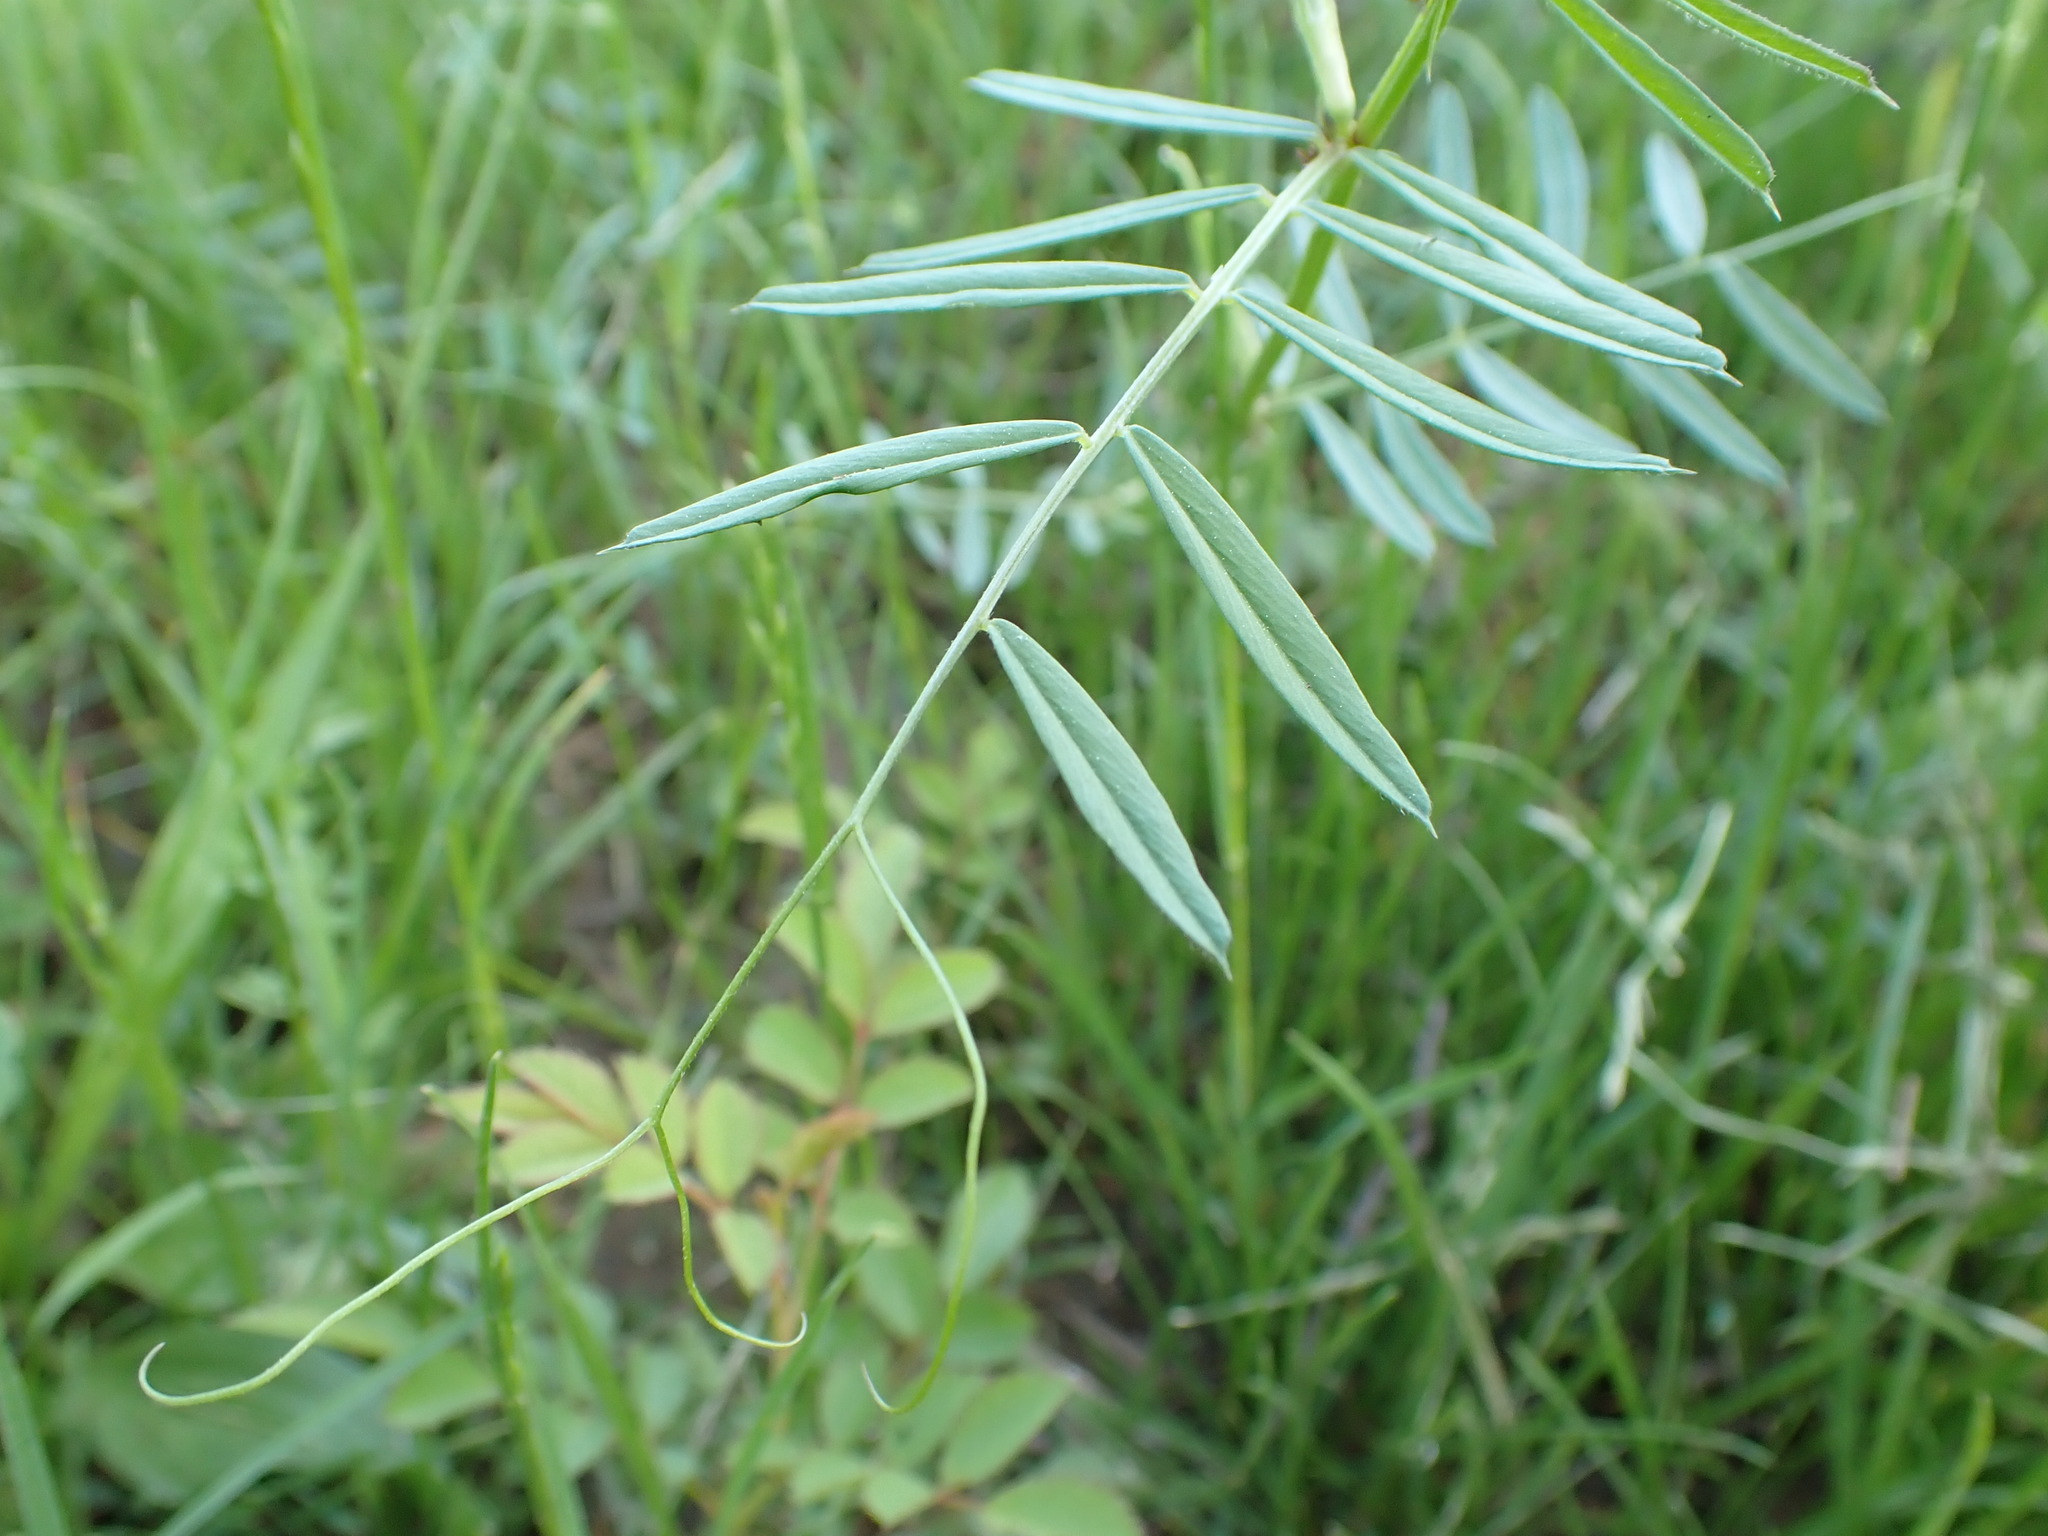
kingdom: Plantae
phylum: Tracheophyta
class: Magnoliopsida
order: Fabales
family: Fabaceae
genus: Vicia
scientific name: Vicia sativa
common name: Garden vetch
